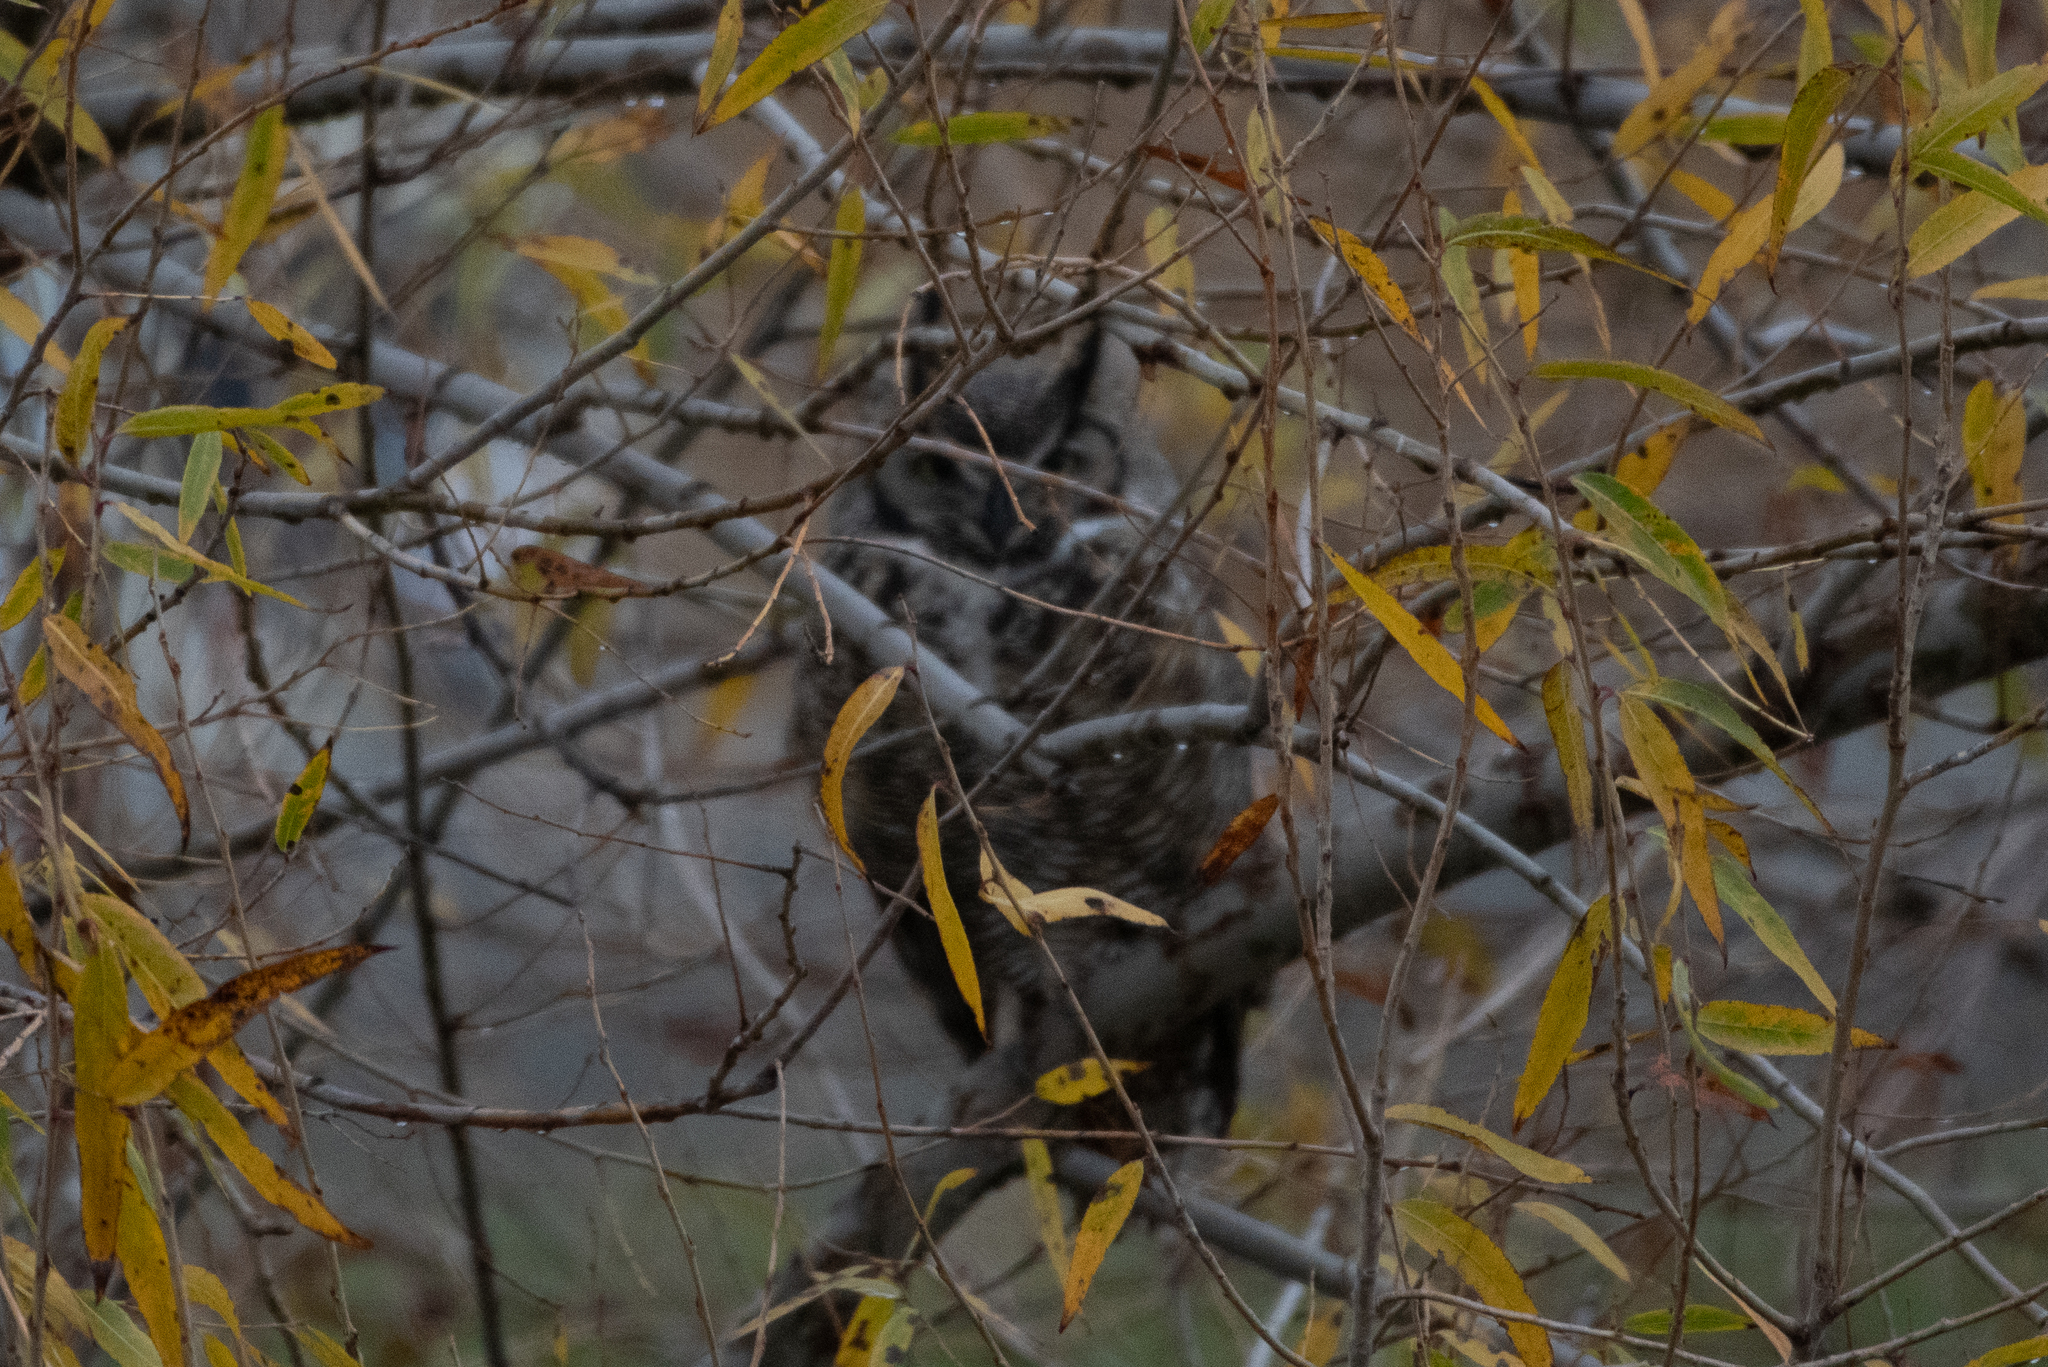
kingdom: Animalia
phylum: Chordata
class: Aves
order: Strigiformes
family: Strigidae
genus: Bubo
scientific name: Bubo virginianus
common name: Great horned owl
